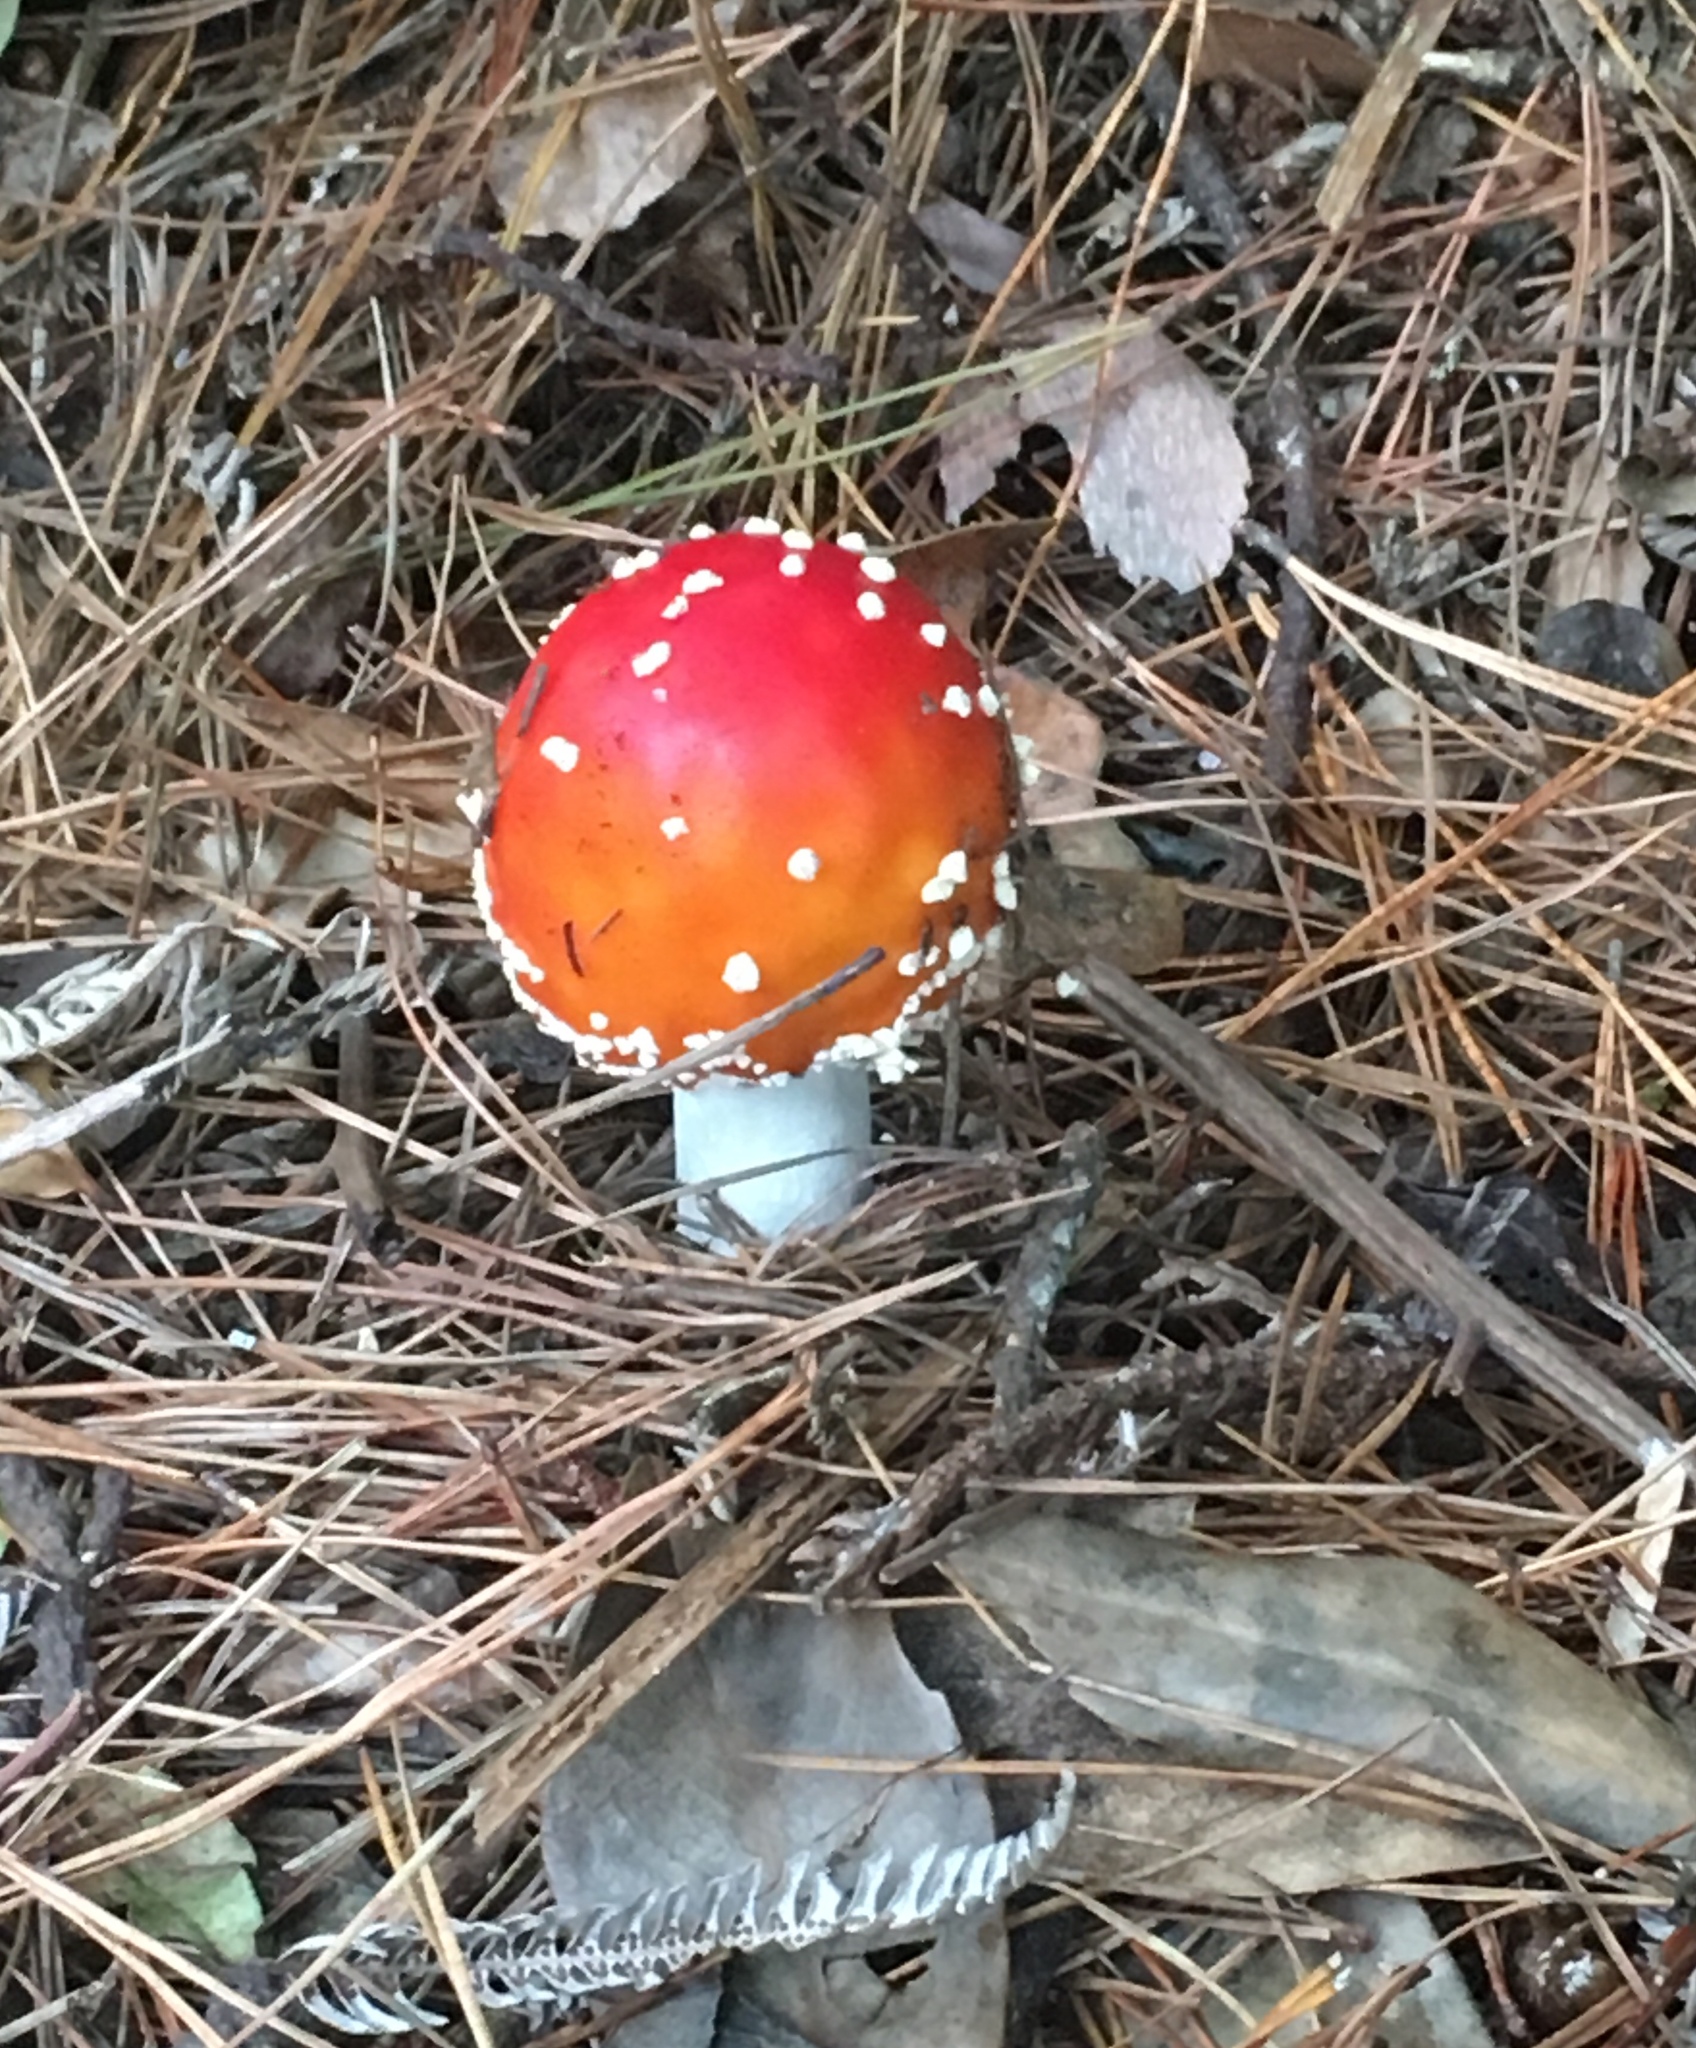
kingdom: Fungi
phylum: Basidiomycota
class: Agaricomycetes
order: Agaricales
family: Amanitaceae
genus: Amanita
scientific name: Amanita muscaria
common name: Fly agaric
